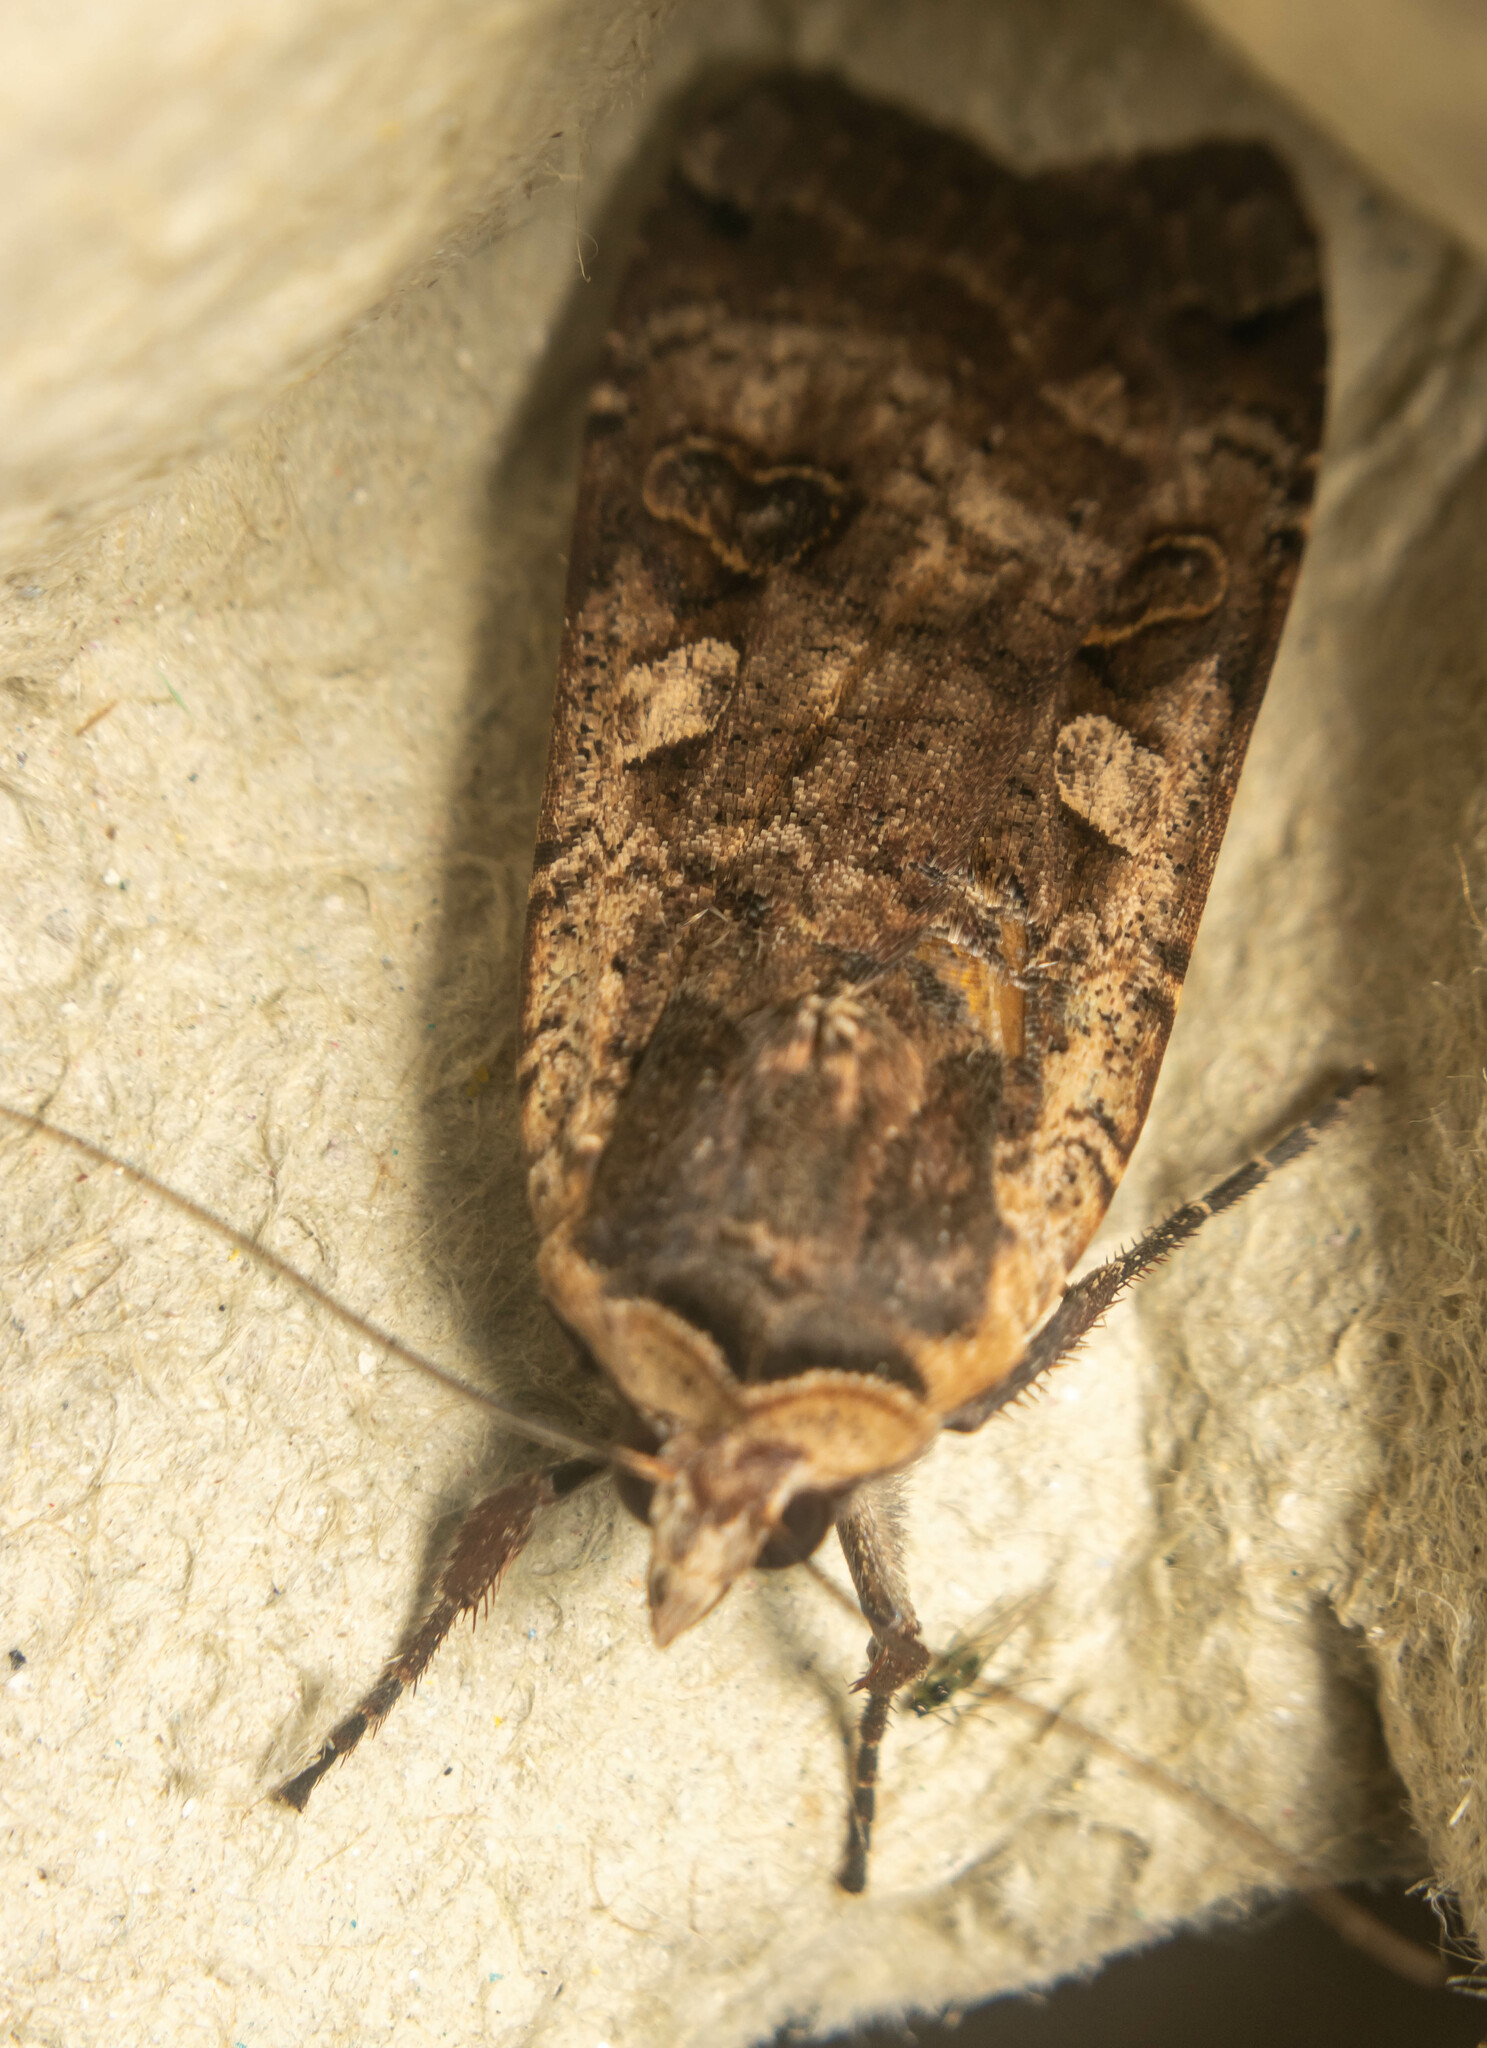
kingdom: Animalia
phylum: Arthropoda
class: Insecta
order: Lepidoptera
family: Noctuidae
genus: Noctua
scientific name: Noctua pronuba
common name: Large yellow underwing
